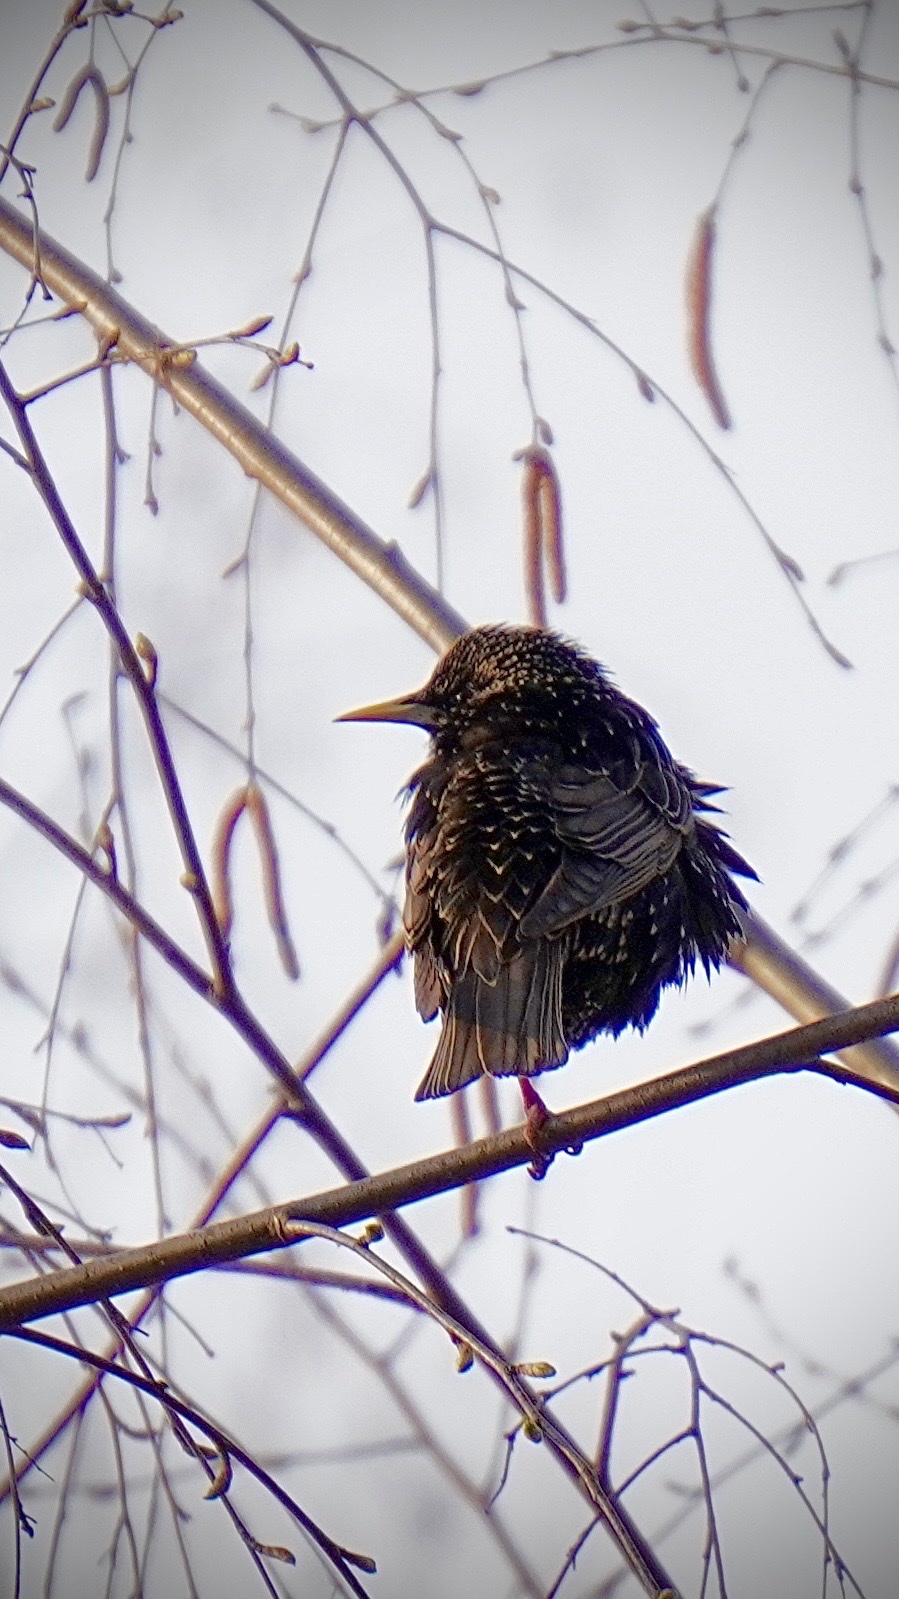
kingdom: Animalia
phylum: Chordata
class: Aves
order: Passeriformes
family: Sturnidae
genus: Sturnus
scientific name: Sturnus vulgaris
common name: Common starling
